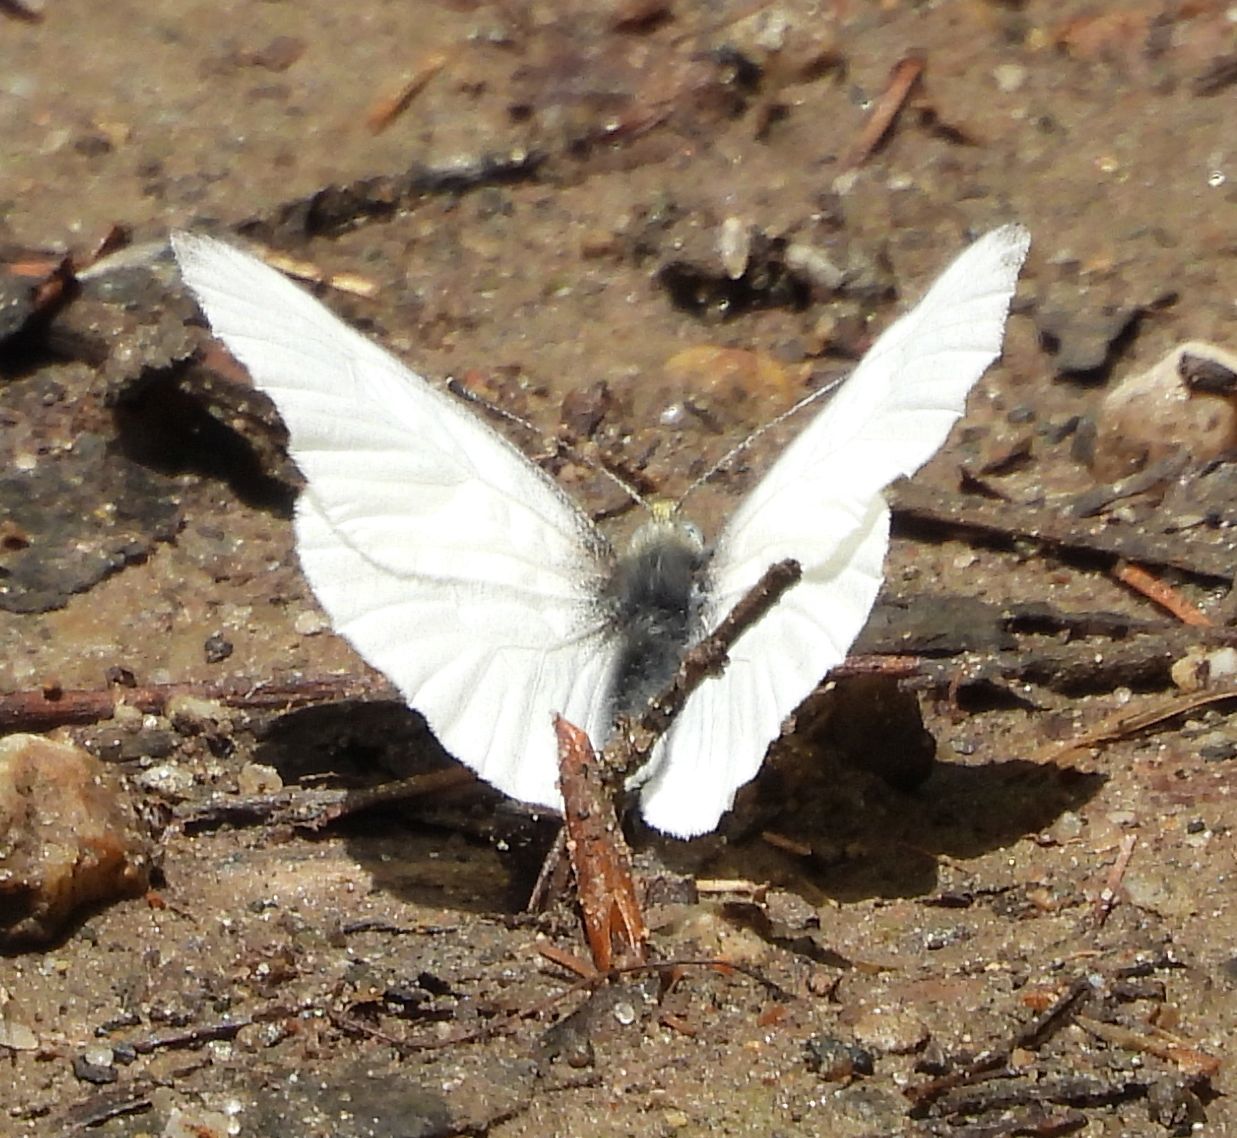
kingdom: Animalia
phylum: Arthropoda
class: Insecta
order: Lepidoptera
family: Pieridae
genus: Pieris
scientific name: Pieris virginiensis
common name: West virginia white
